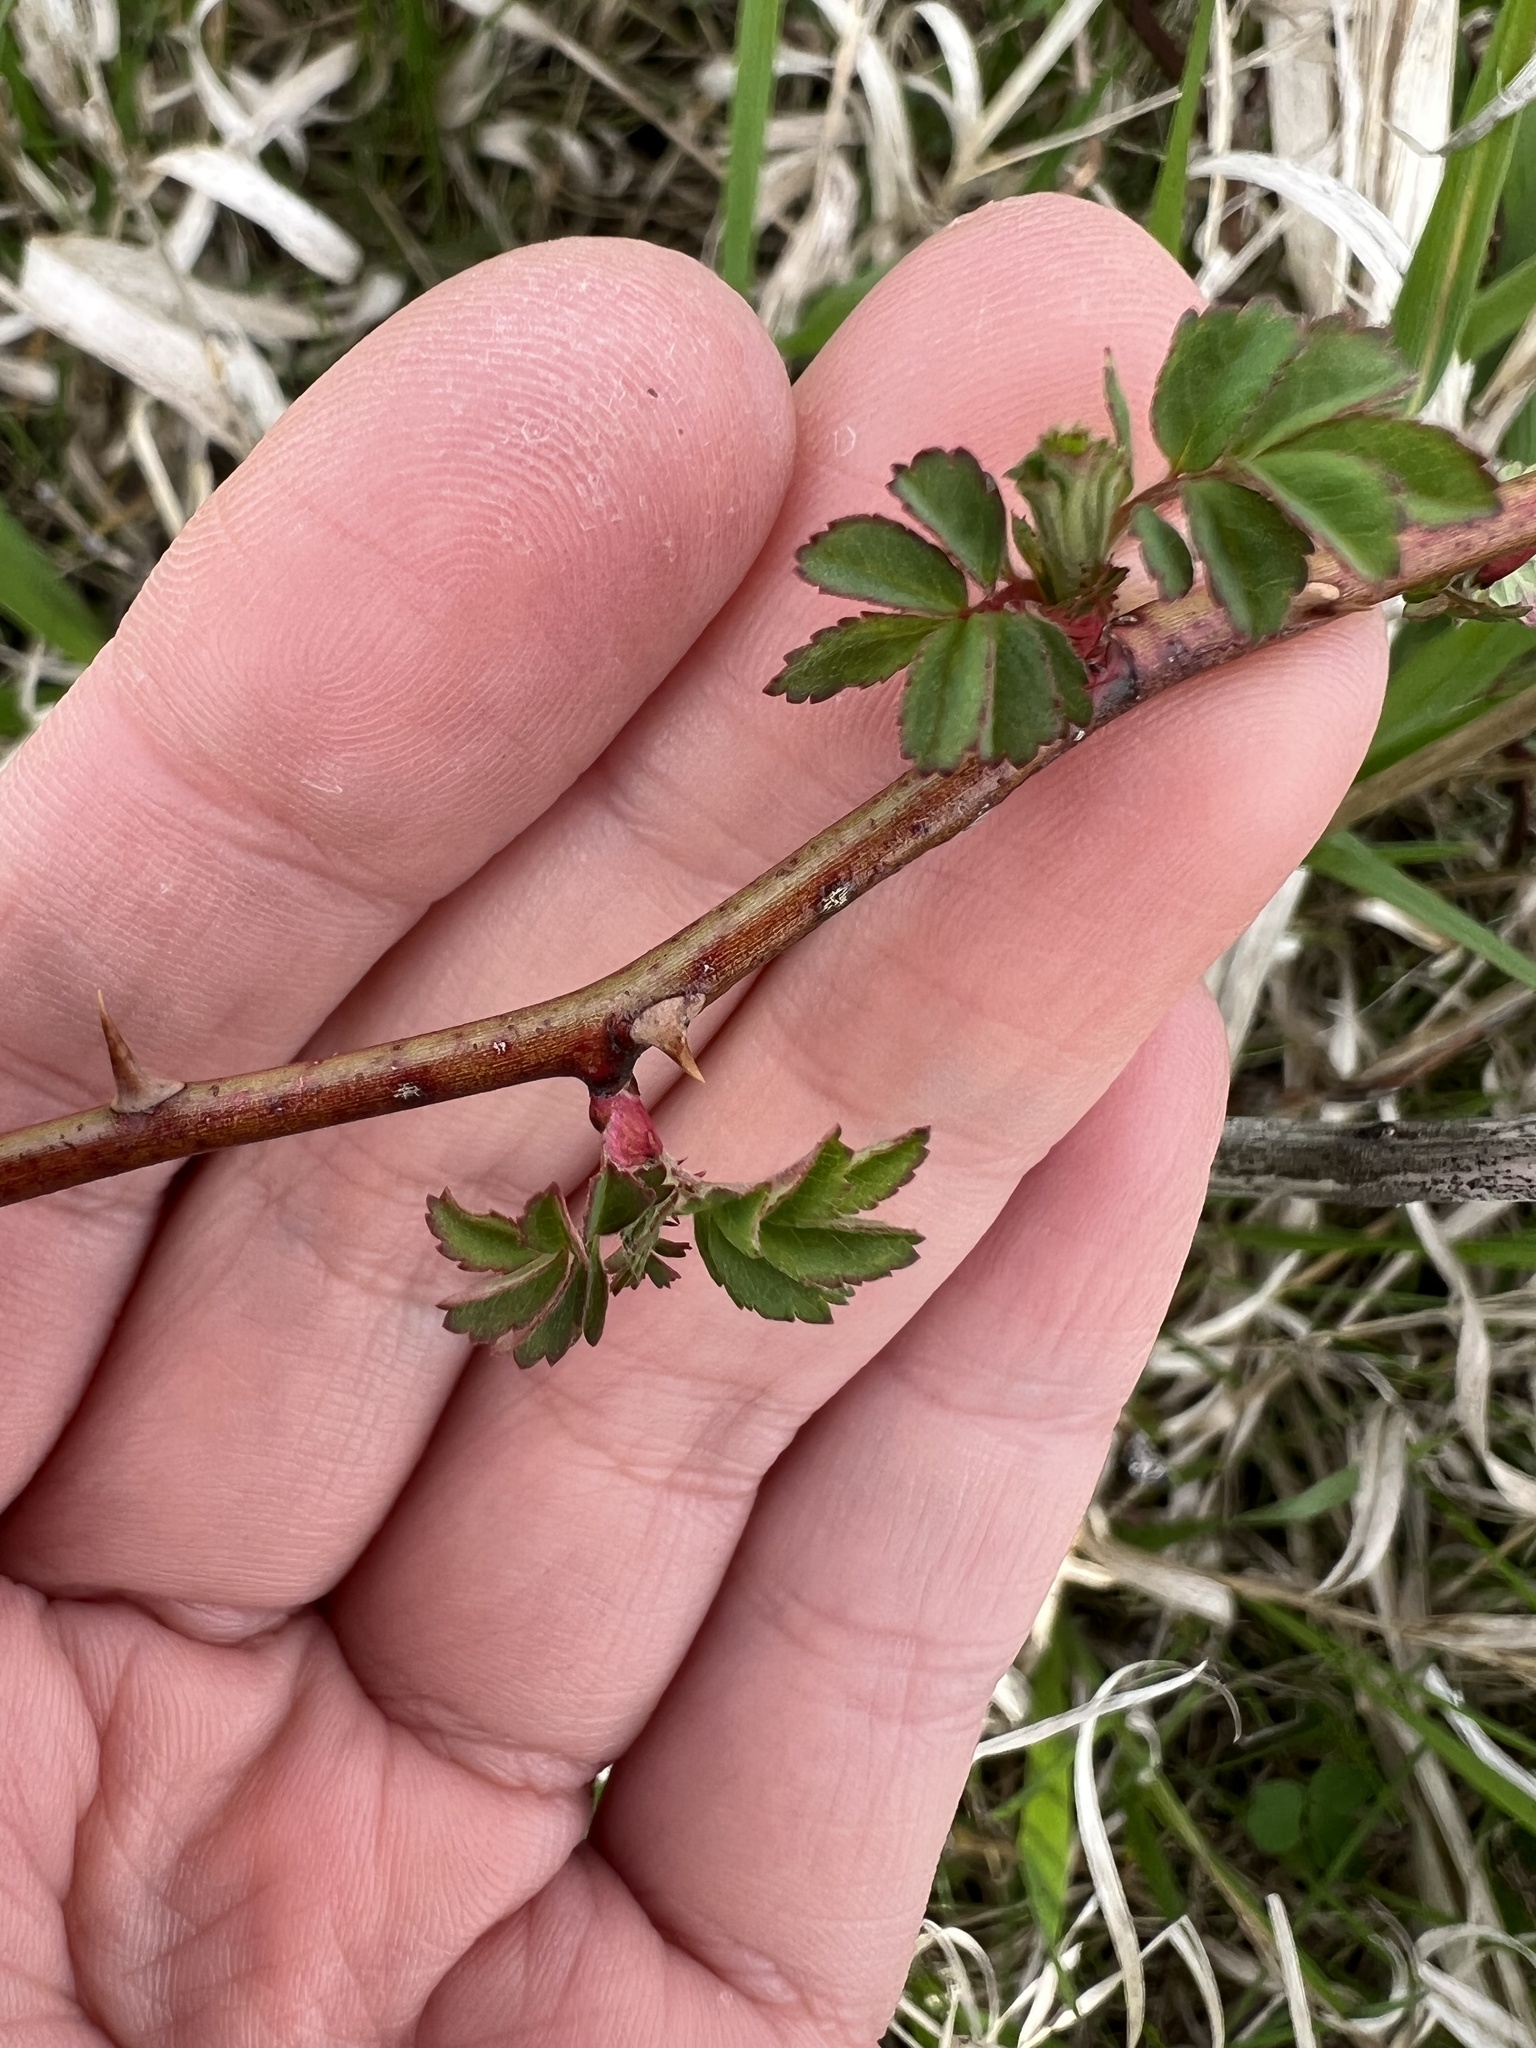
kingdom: Plantae
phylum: Tracheophyta
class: Magnoliopsida
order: Rosales
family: Rosaceae
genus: Rosa
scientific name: Rosa multiflora
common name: Multiflora rose
